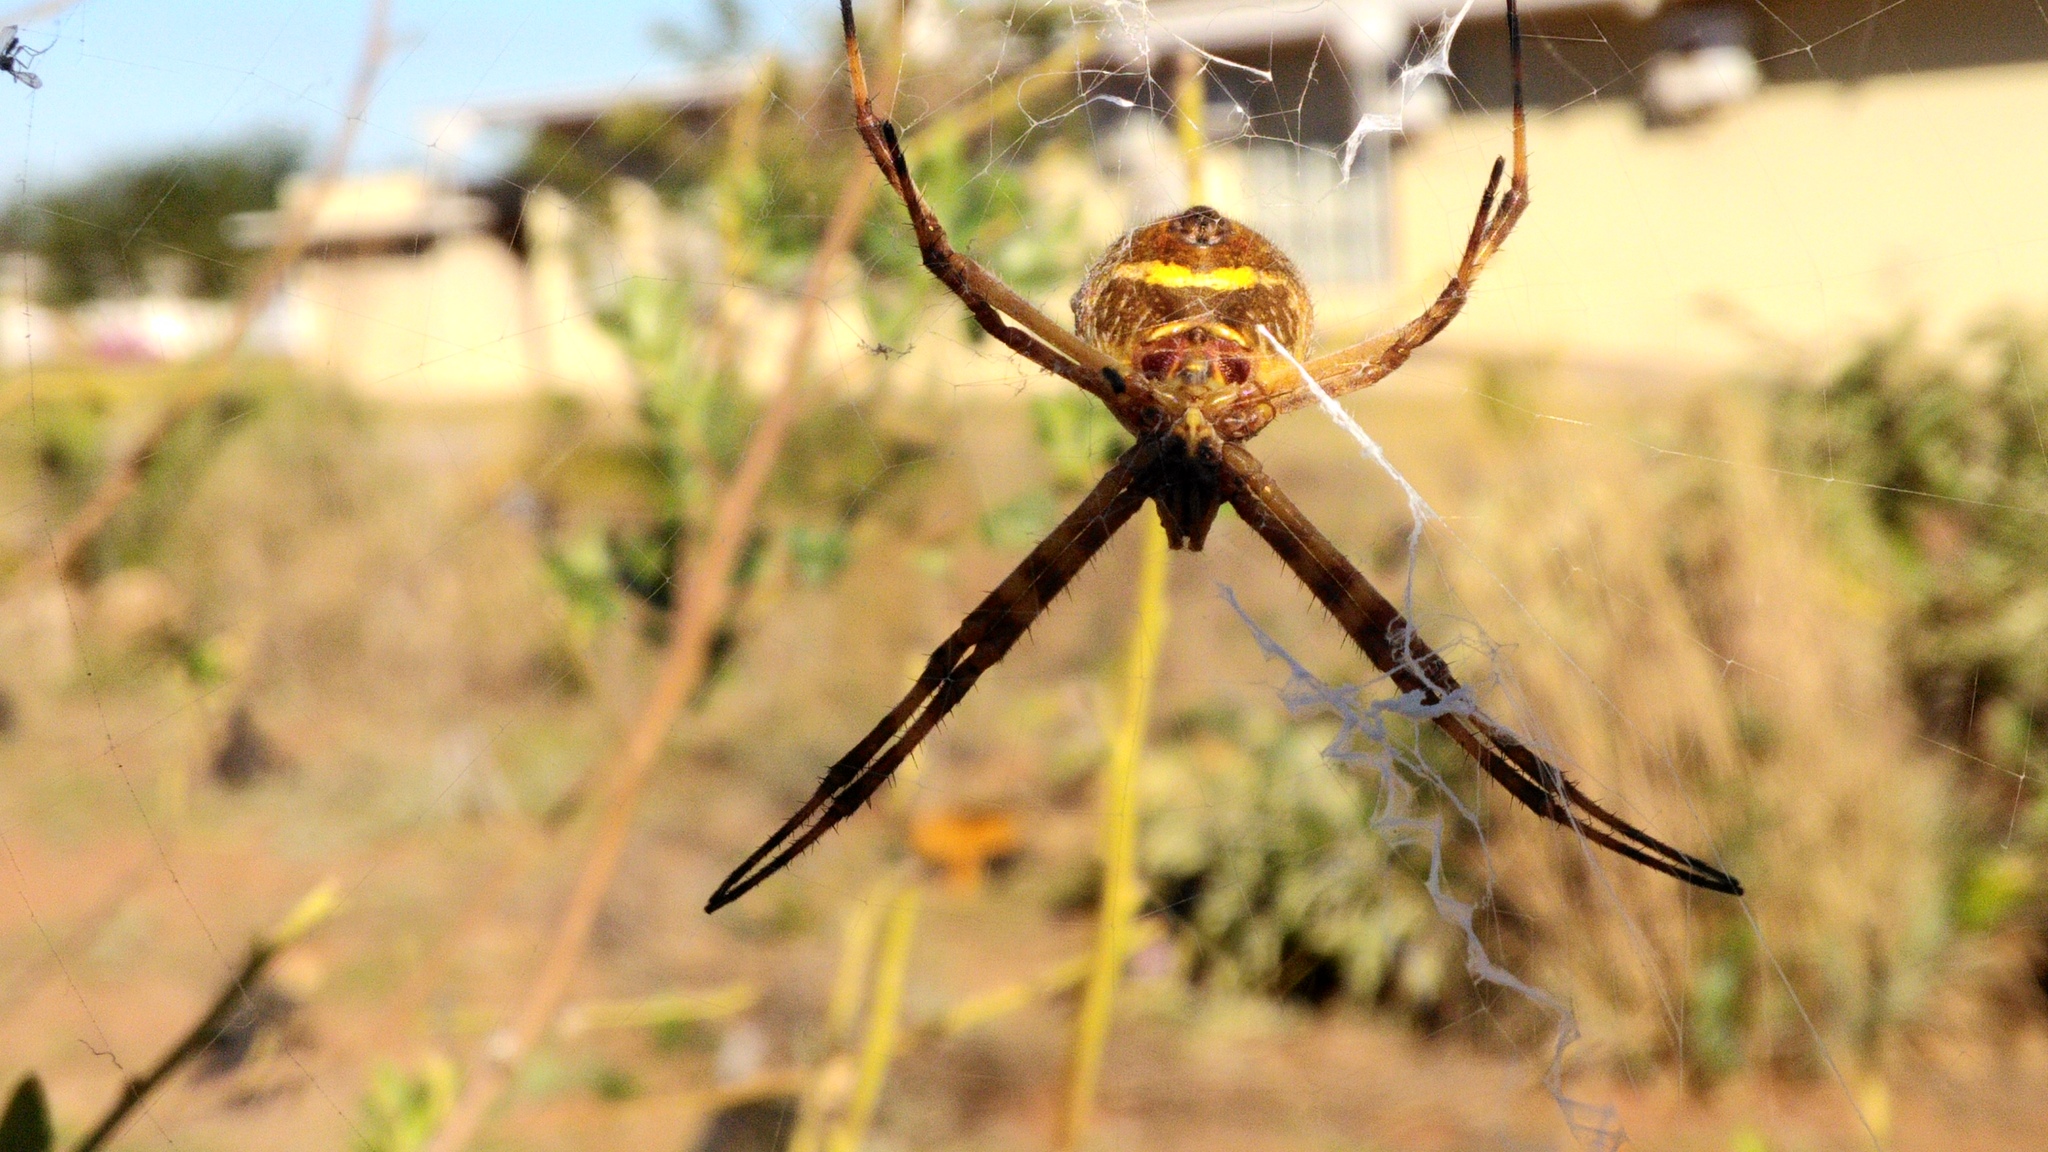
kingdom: Animalia
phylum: Arthropoda
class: Arachnida
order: Araneae
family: Araneidae
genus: Argiope
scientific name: Argiope argentata
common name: Orb weavers
